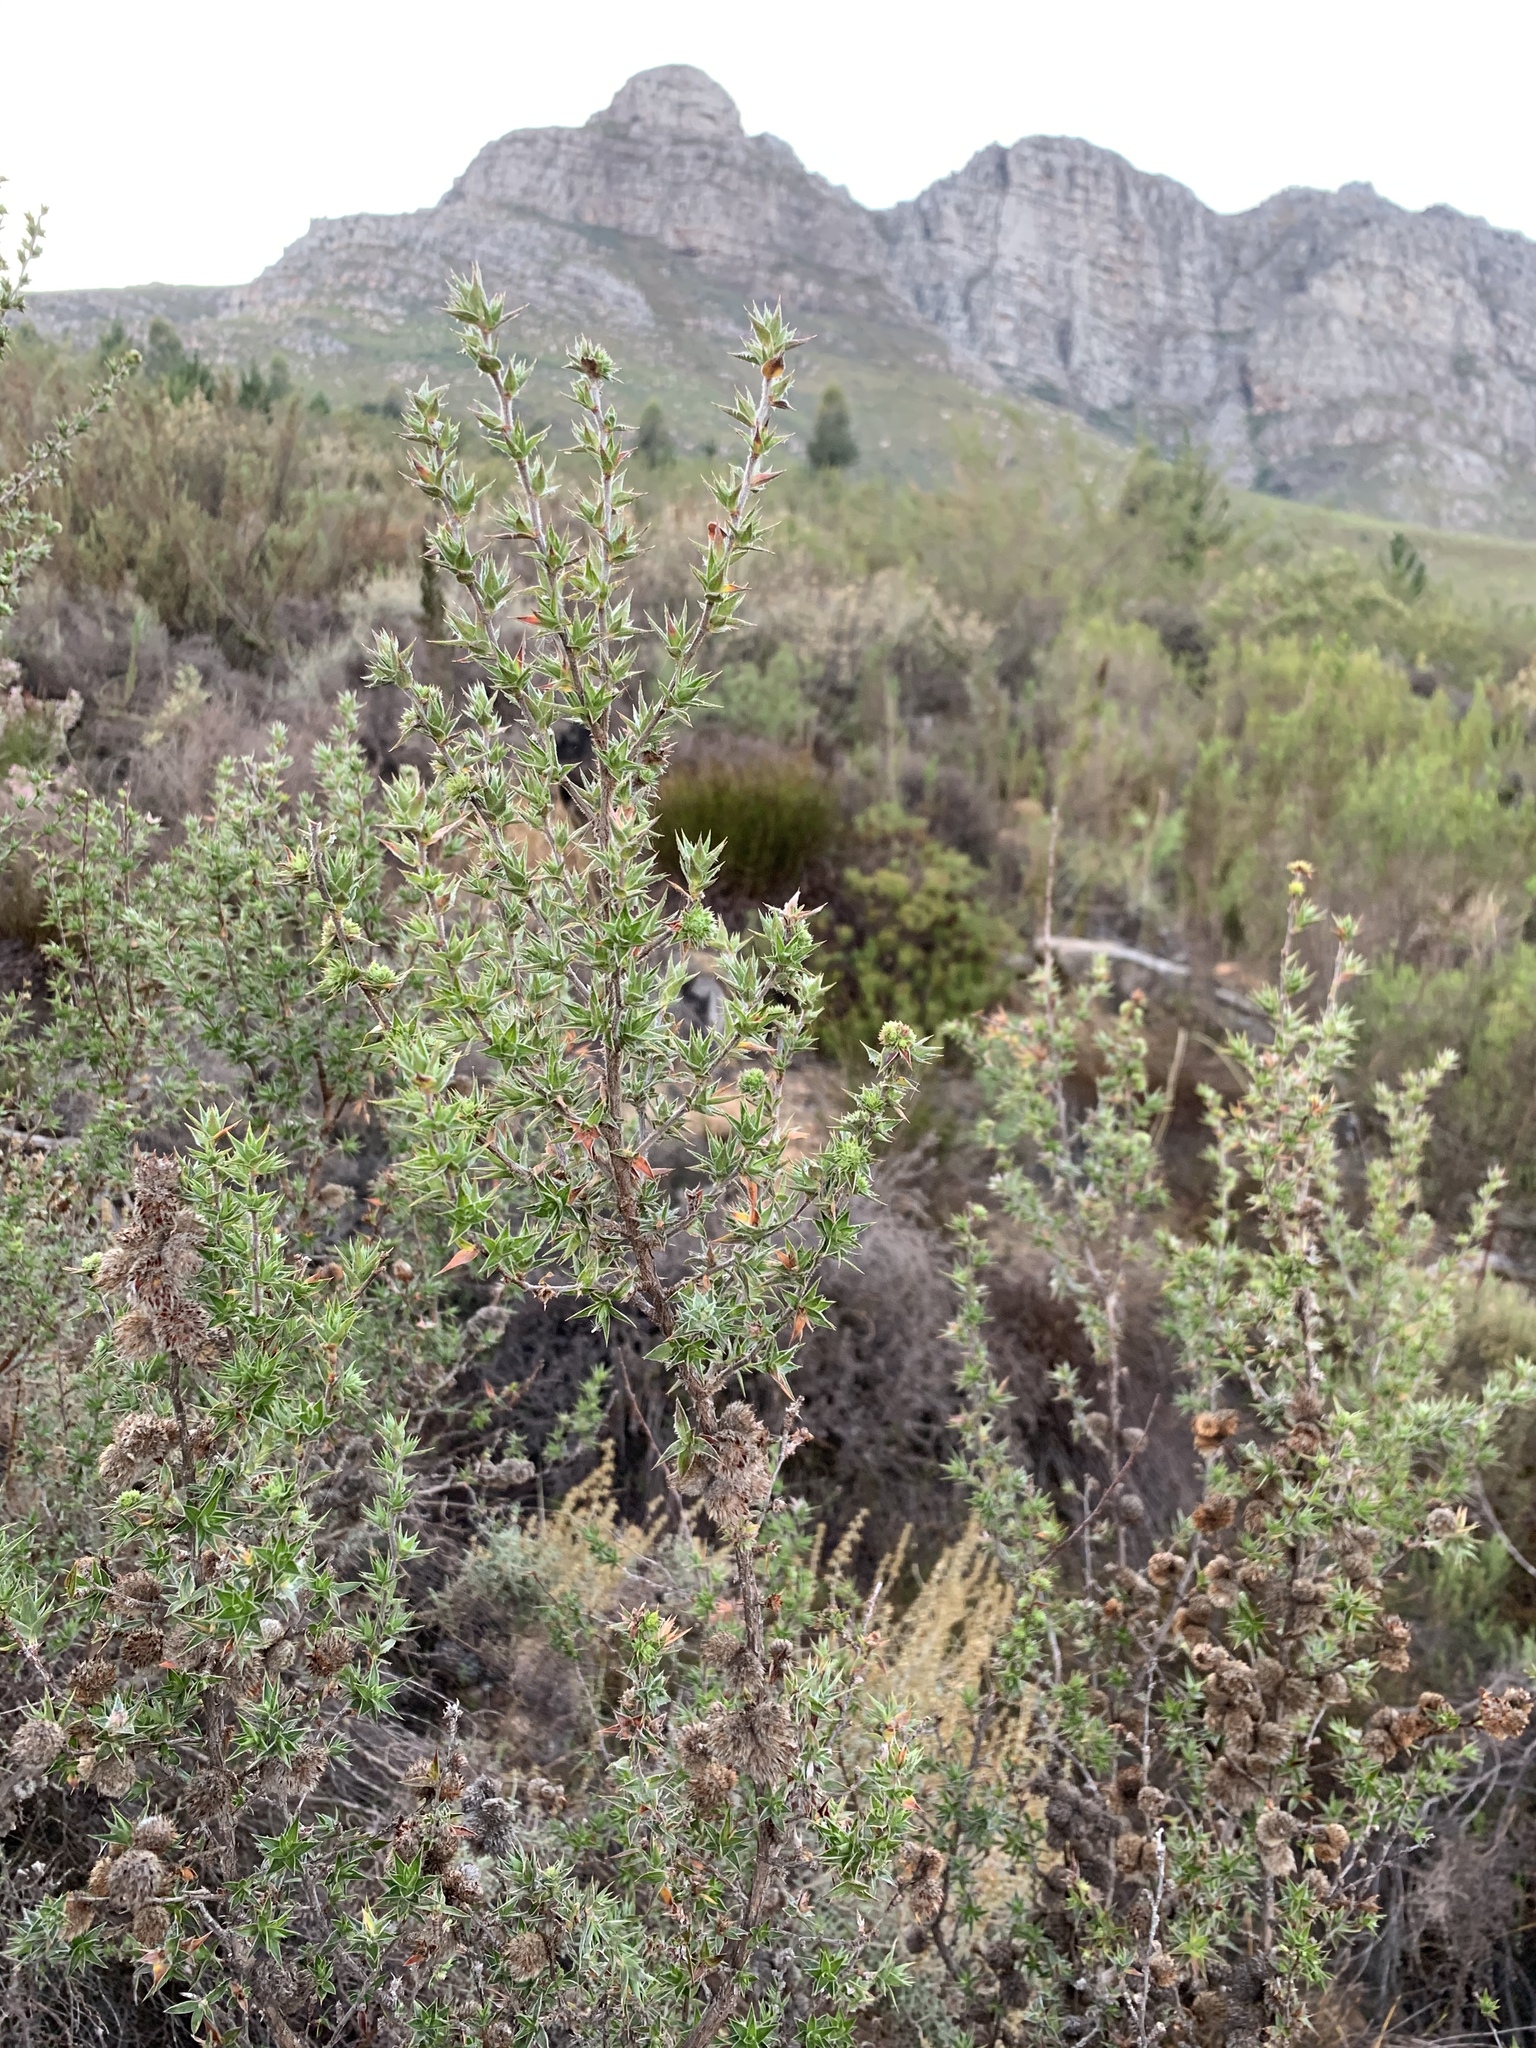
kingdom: Plantae
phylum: Tracheophyta
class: Magnoliopsida
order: Rosales
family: Rosaceae
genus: Cliffortia
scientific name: Cliffortia ruscifolia
